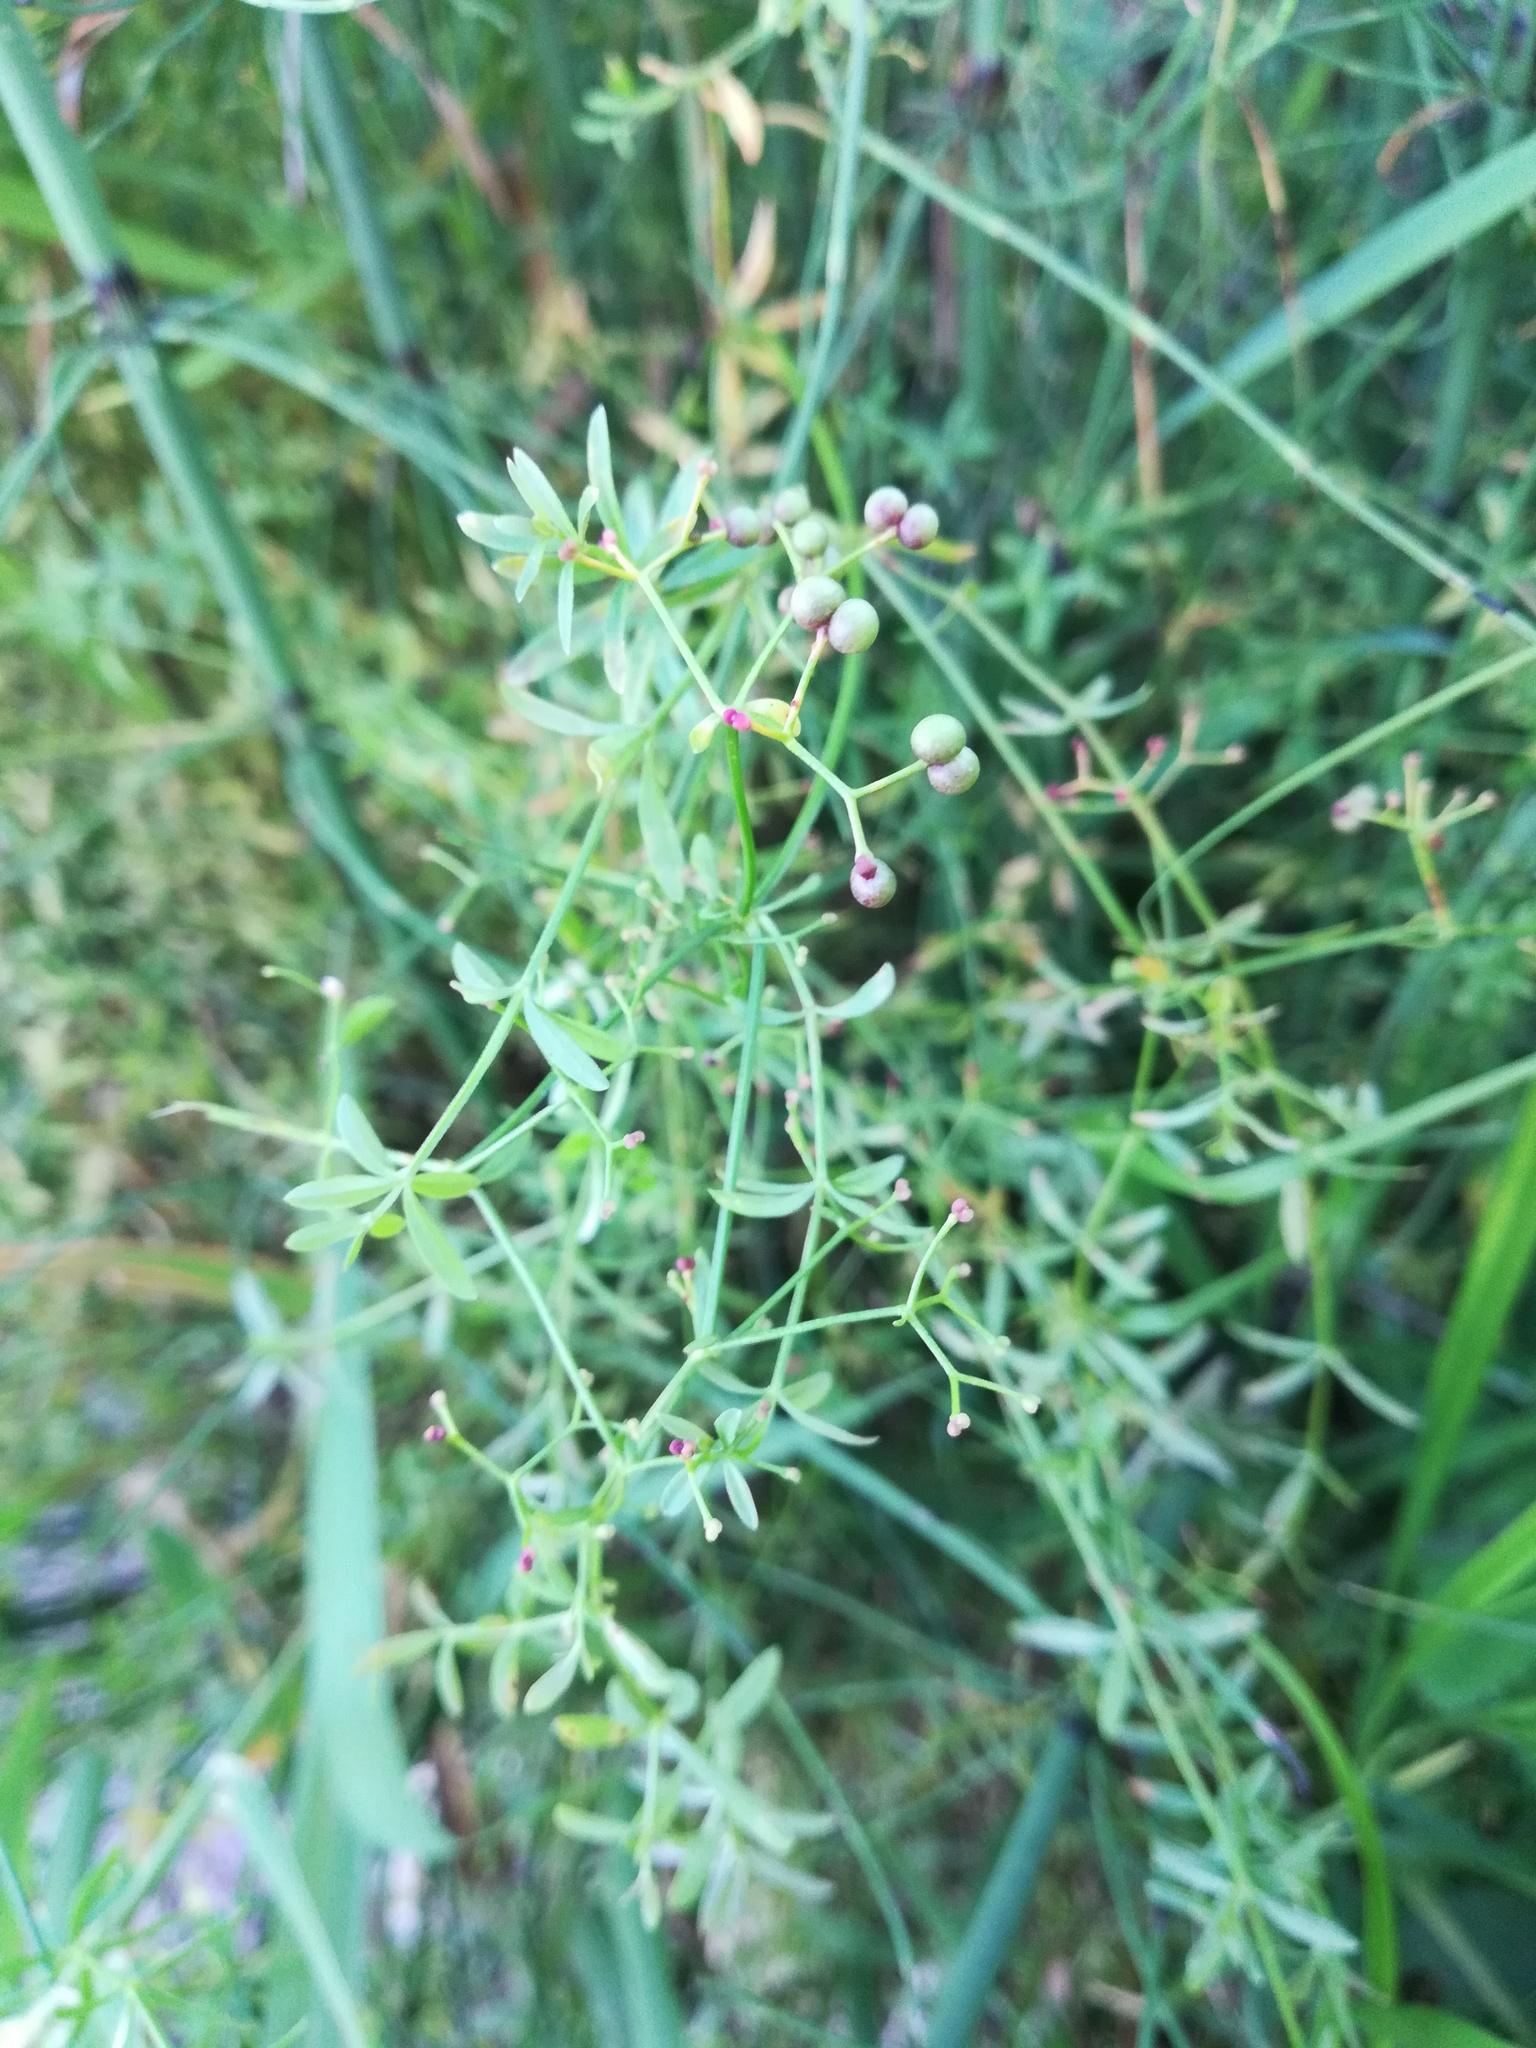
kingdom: Plantae
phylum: Tracheophyta
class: Magnoliopsida
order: Gentianales
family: Rubiaceae
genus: Galium
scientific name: Galium palustre
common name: Common marsh-bedstraw
